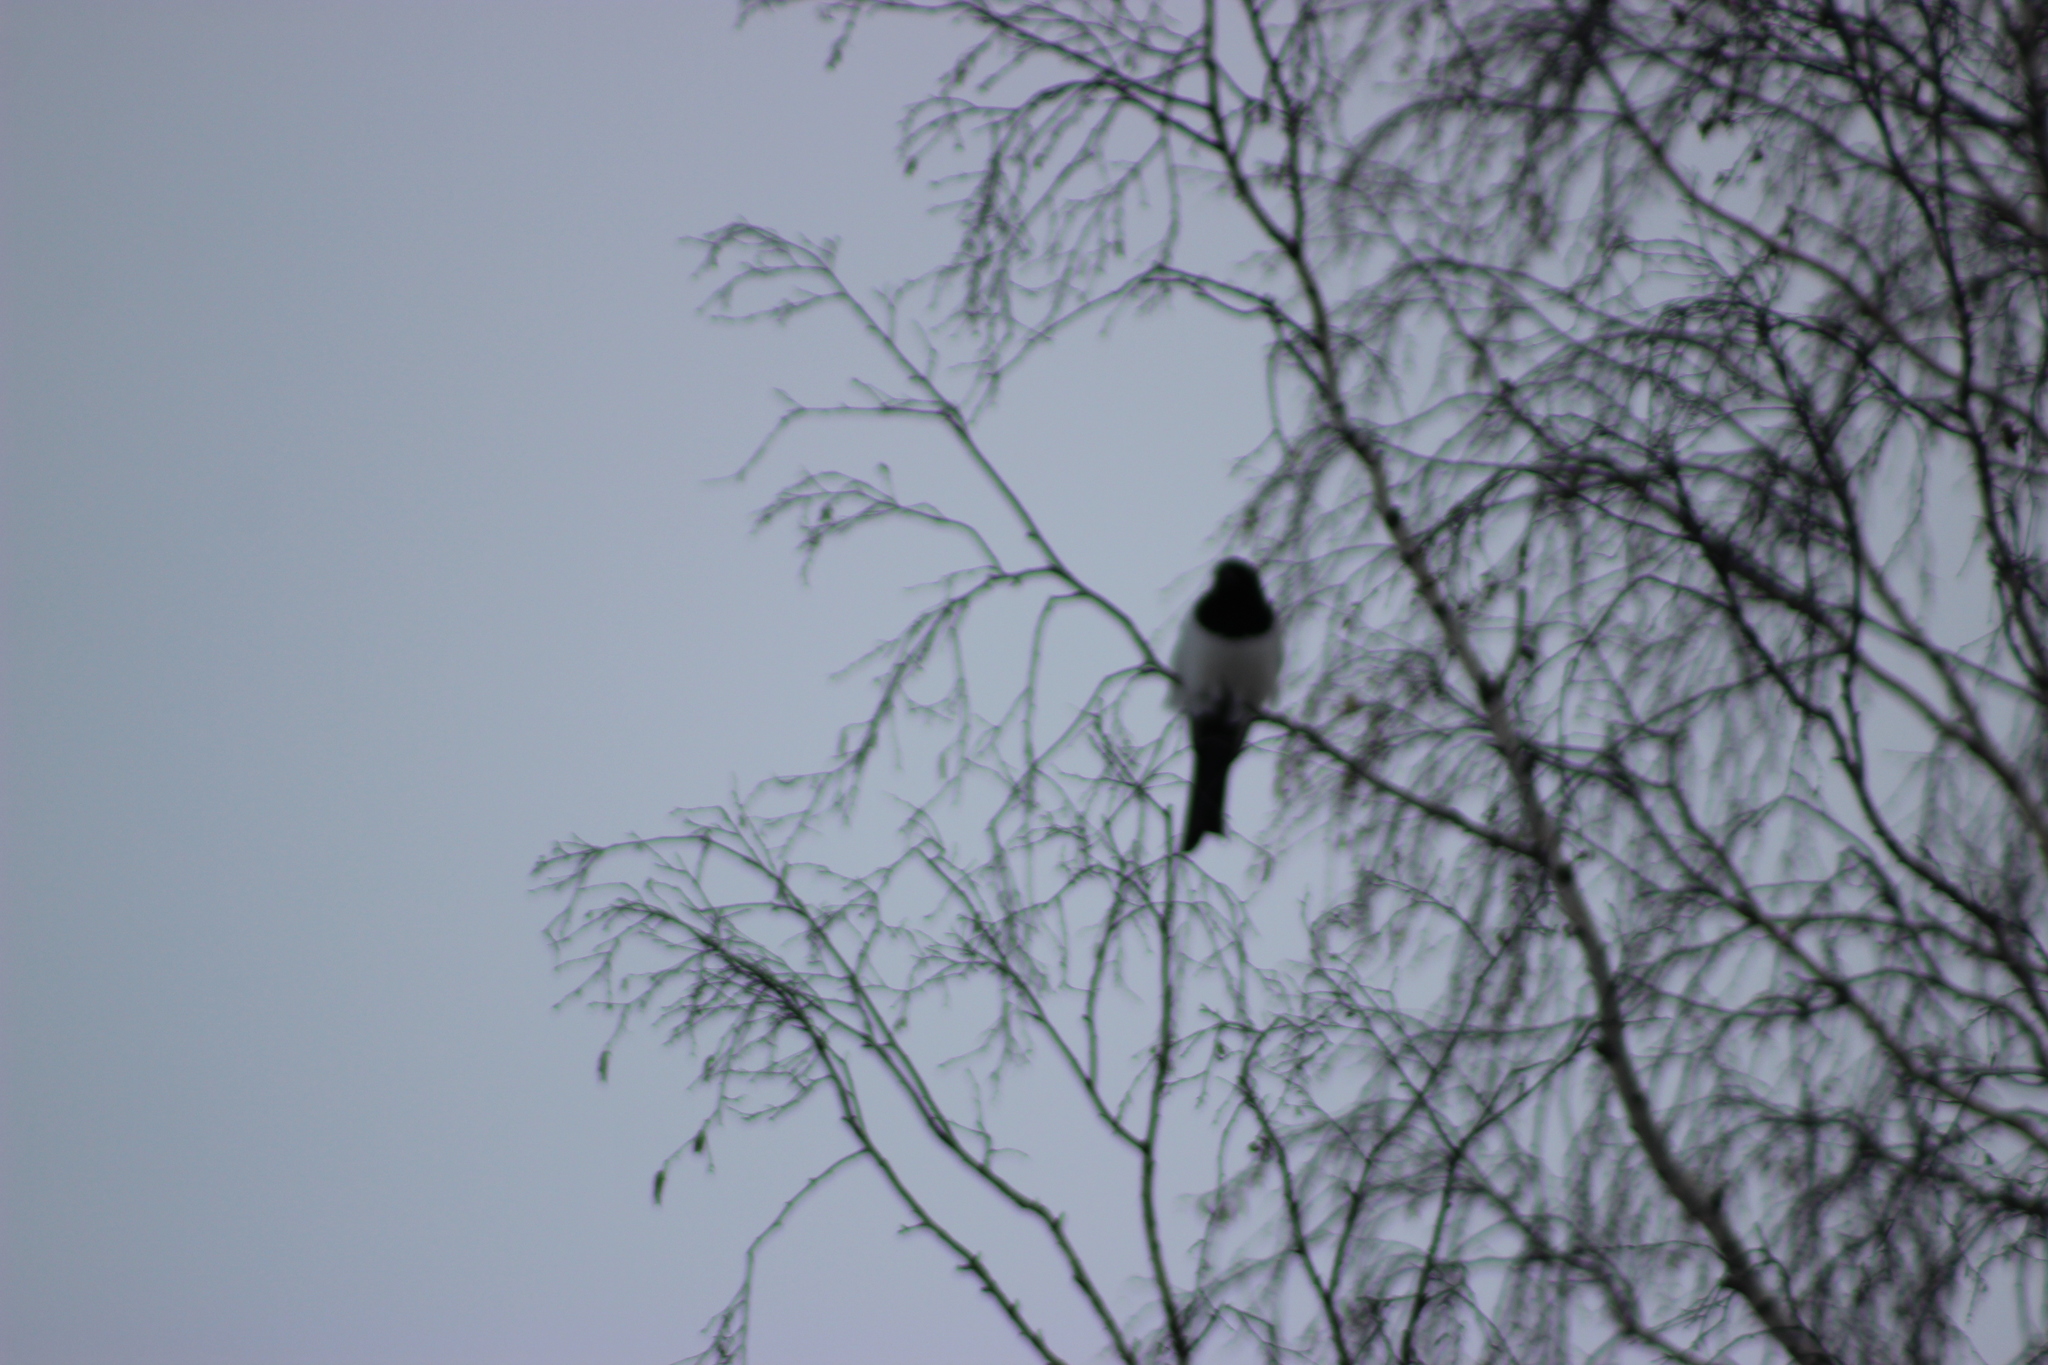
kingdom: Animalia
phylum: Chordata
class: Aves
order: Passeriformes
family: Corvidae
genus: Pica
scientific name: Pica pica
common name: Eurasian magpie
